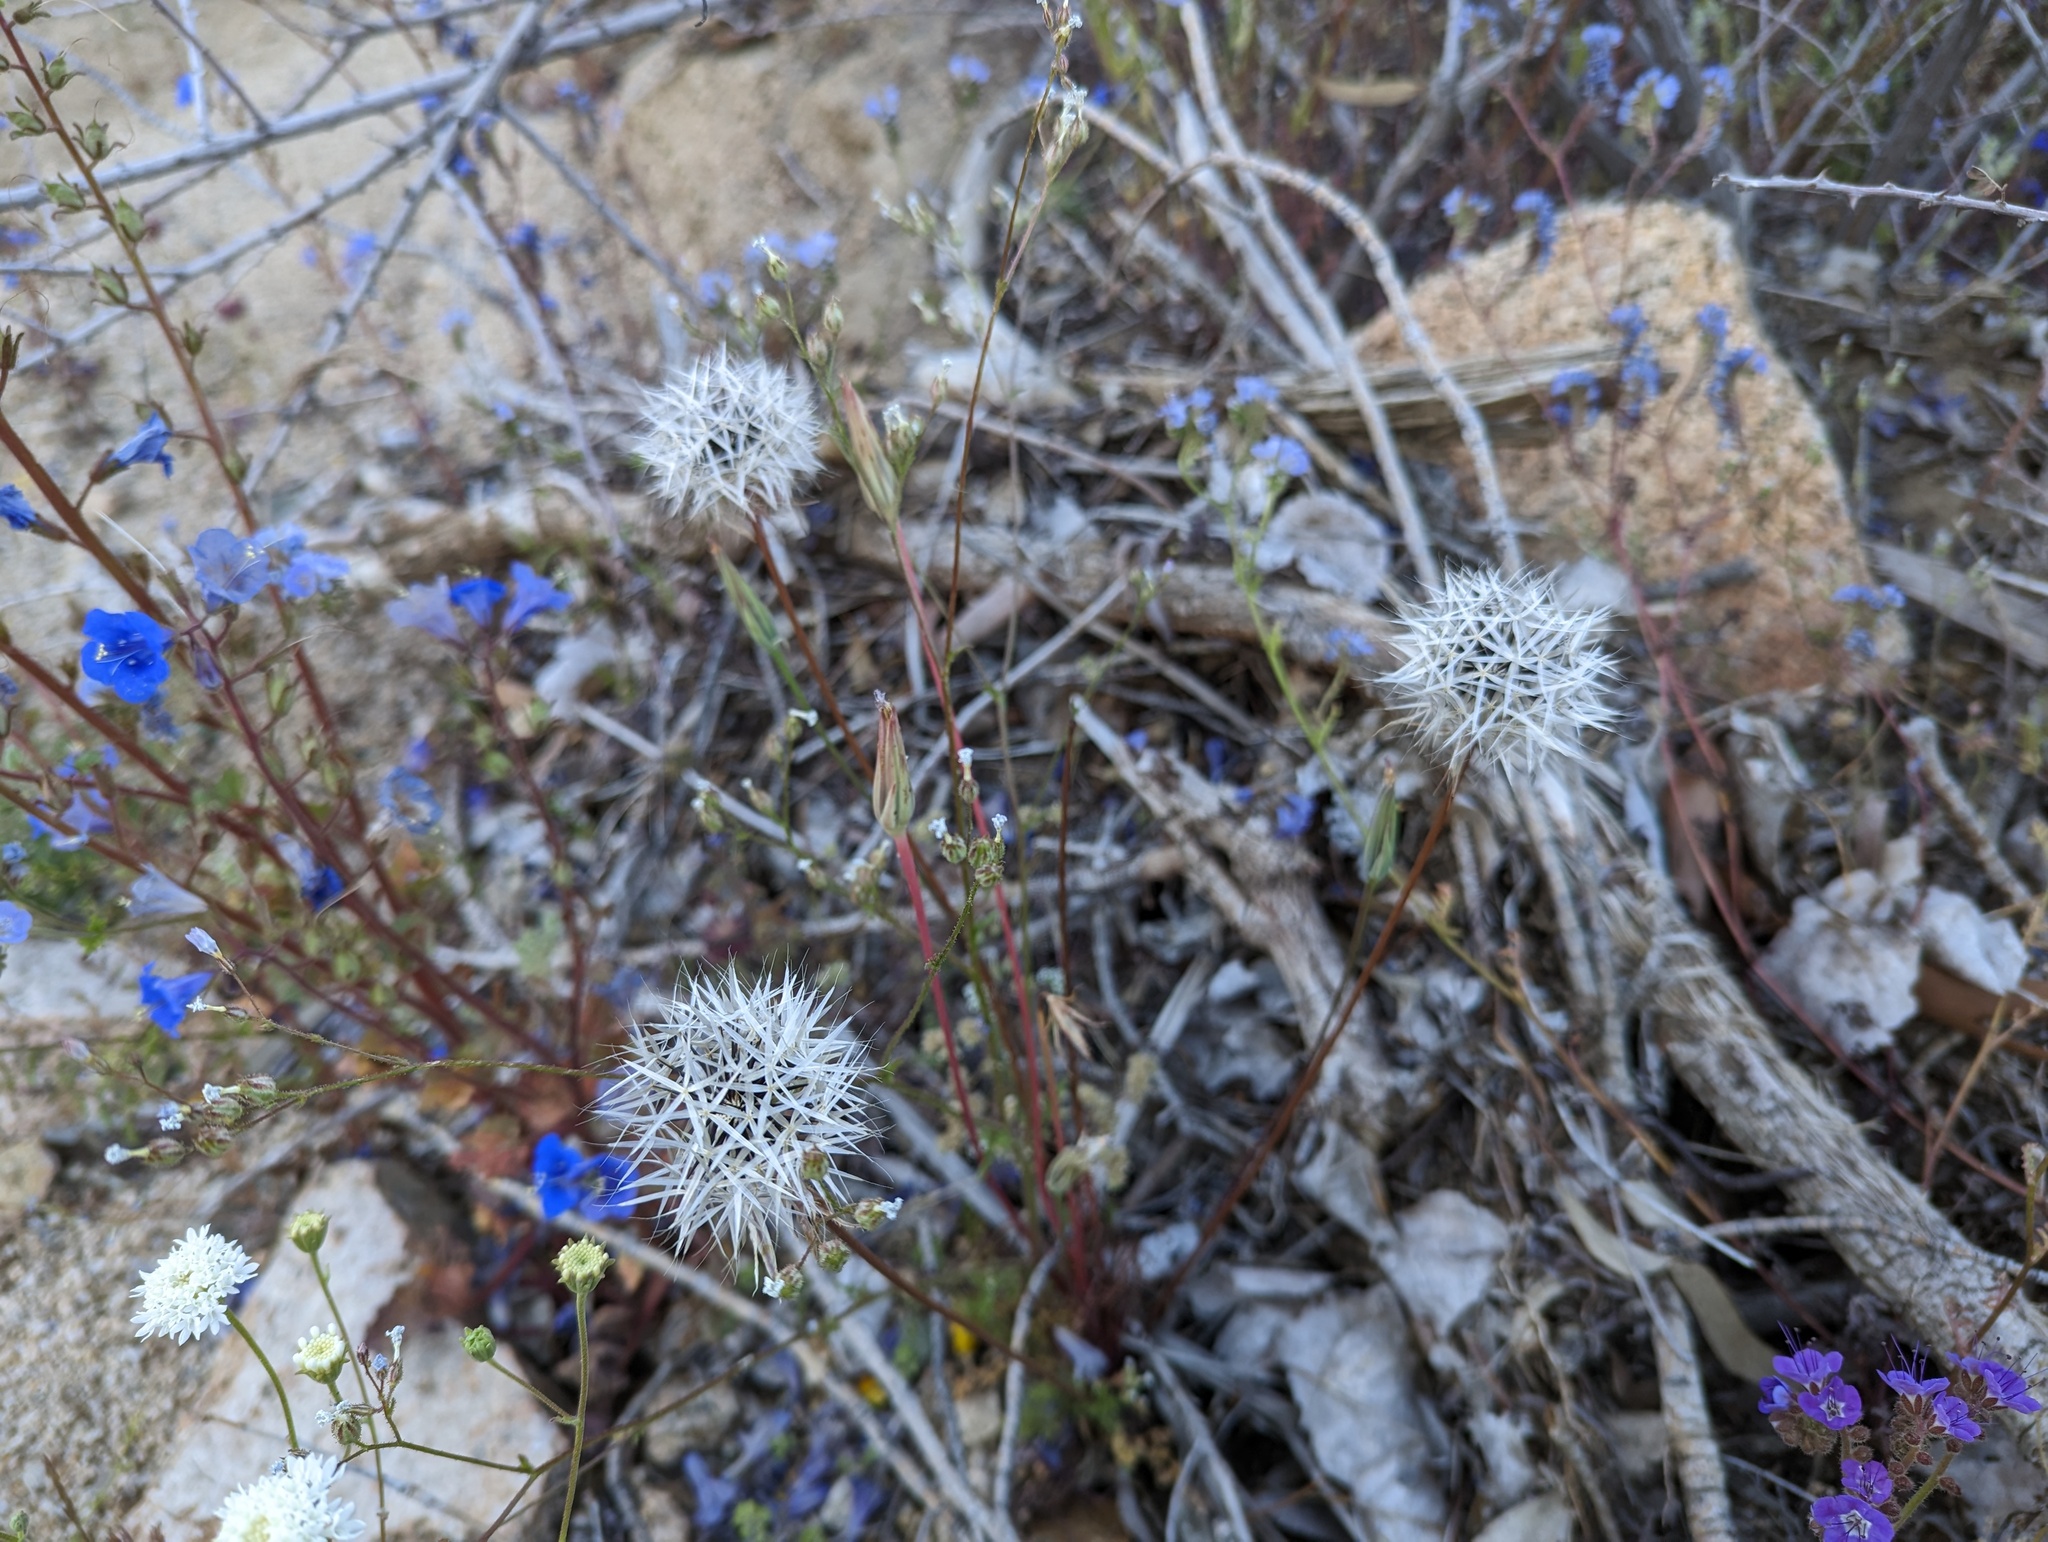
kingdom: Plantae
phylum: Tracheophyta
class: Magnoliopsida
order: Asterales
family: Asteraceae
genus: Microseris
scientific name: Microseris lindleyi
